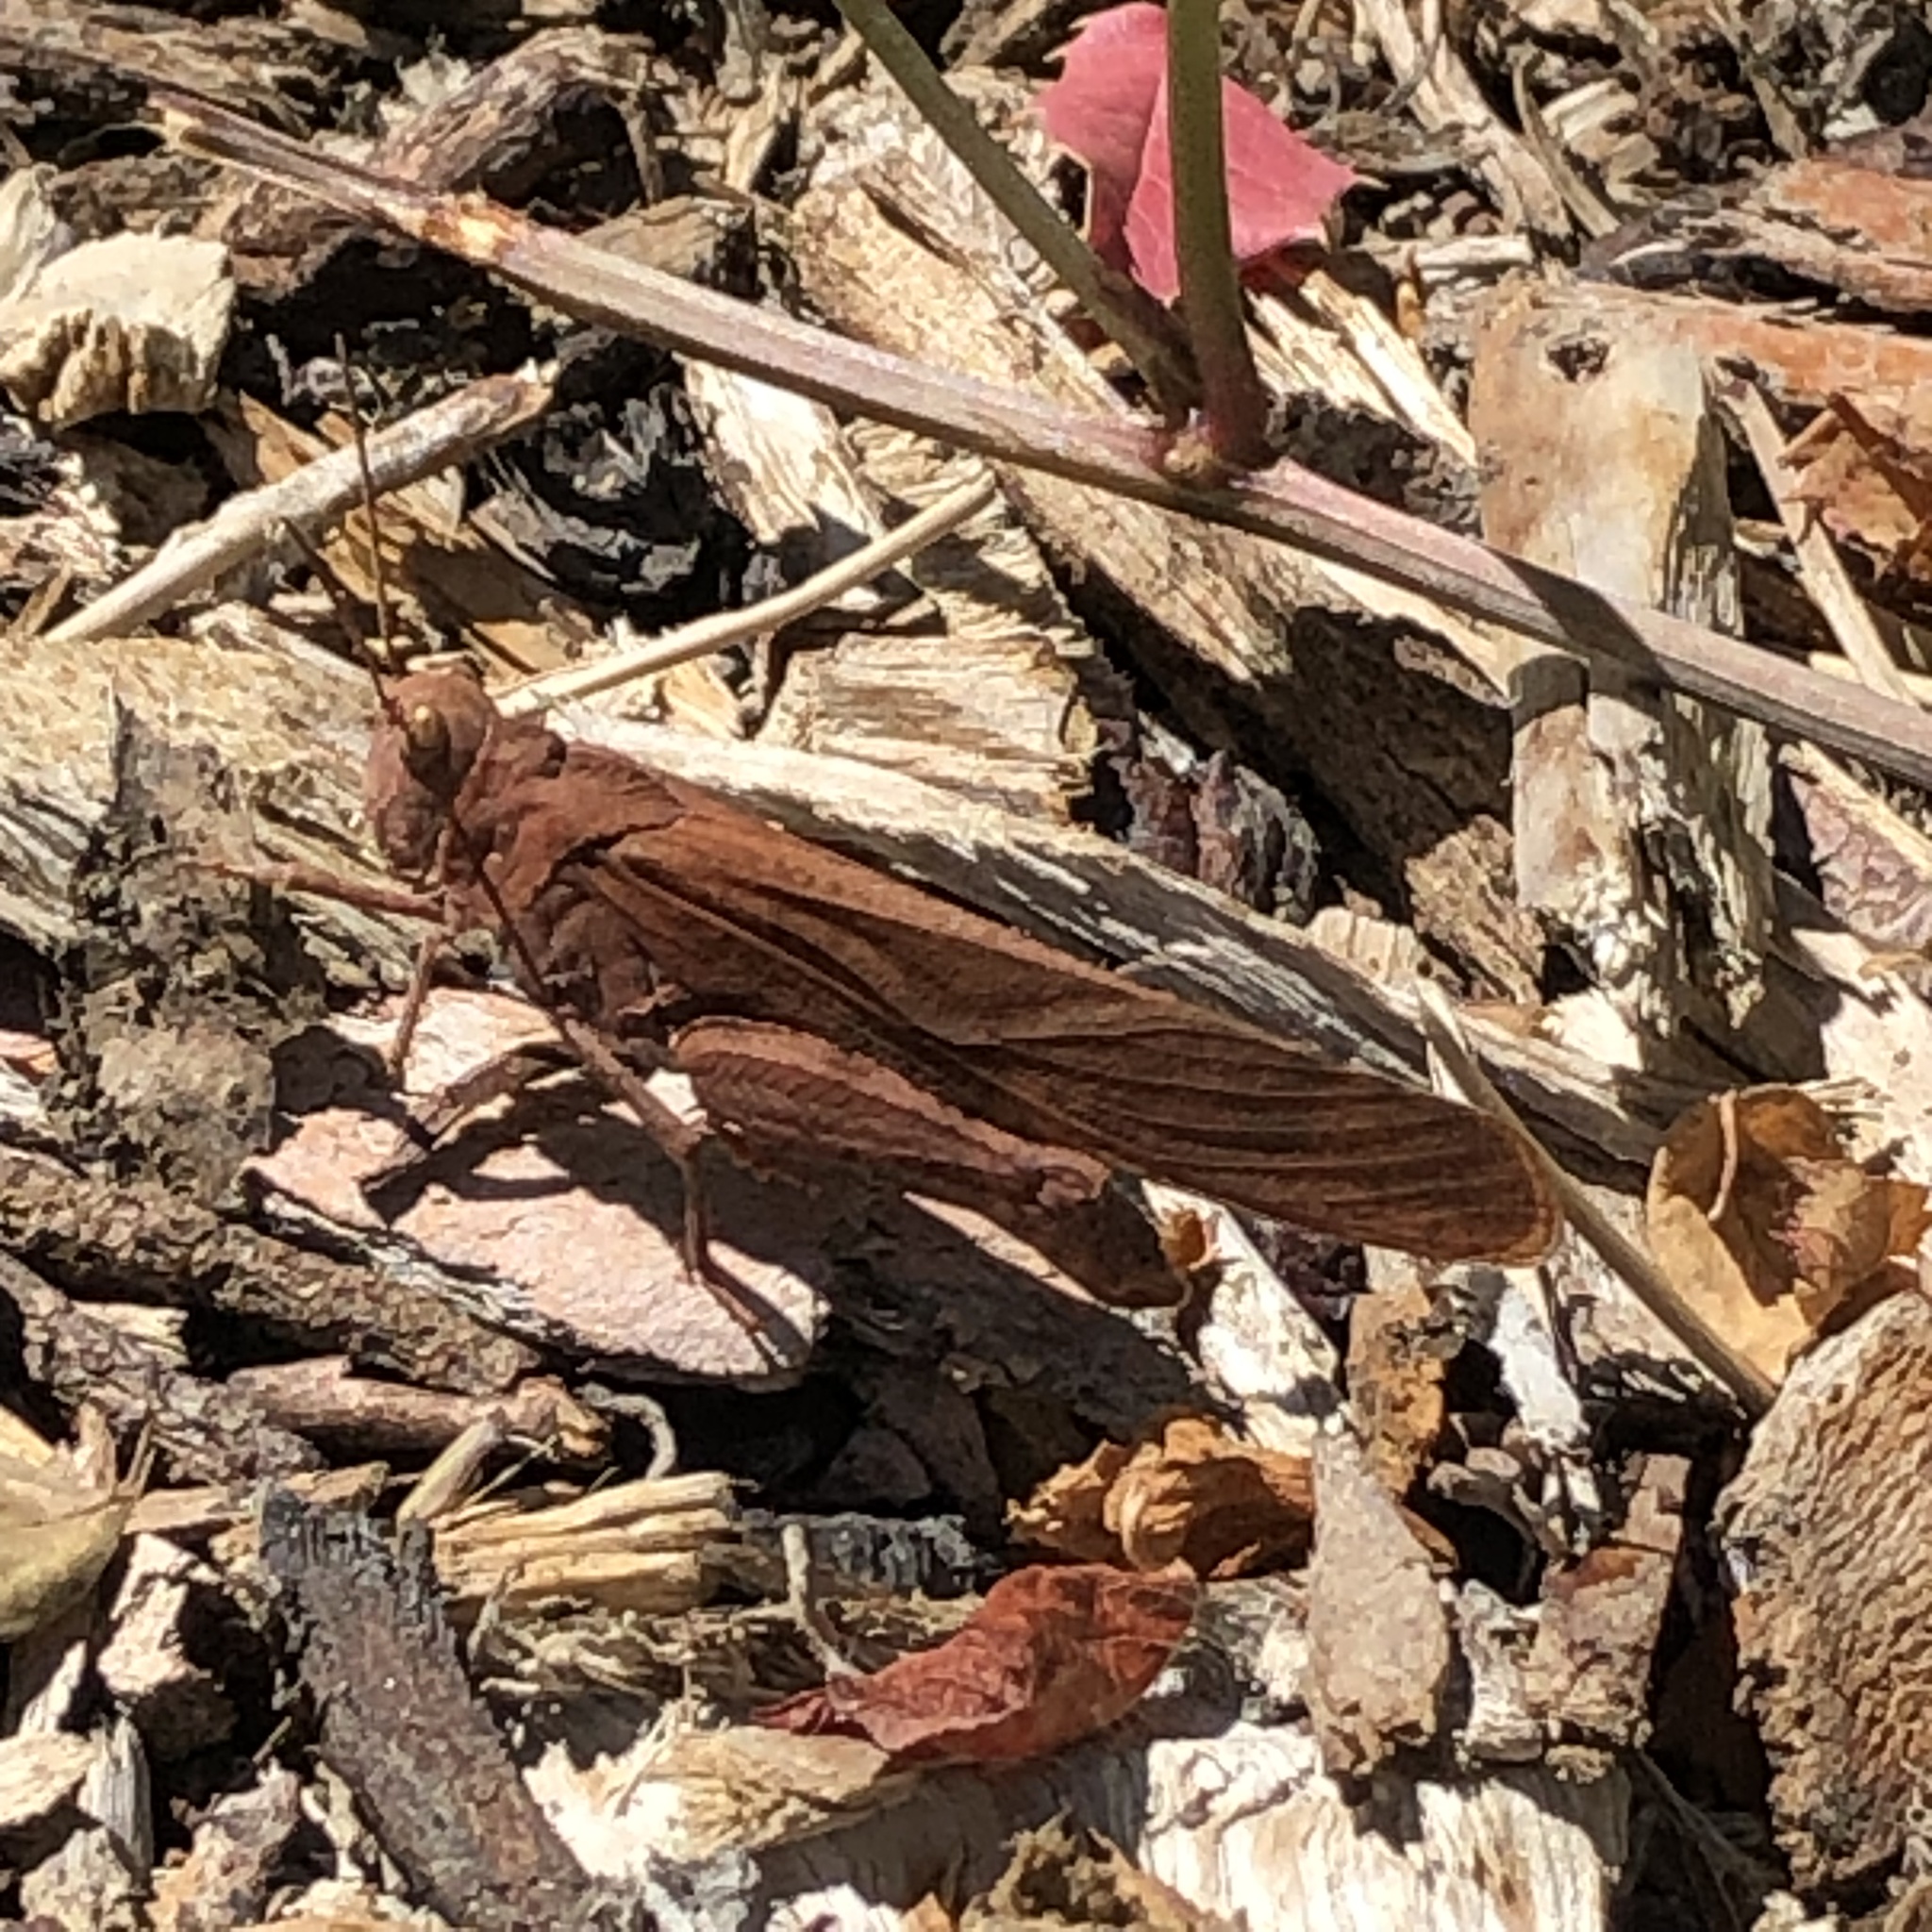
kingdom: Animalia
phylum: Arthropoda
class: Insecta
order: Orthoptera
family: Acrididae
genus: Dissosteira
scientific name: Dissosteira carolina
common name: Carolina grasshopper
